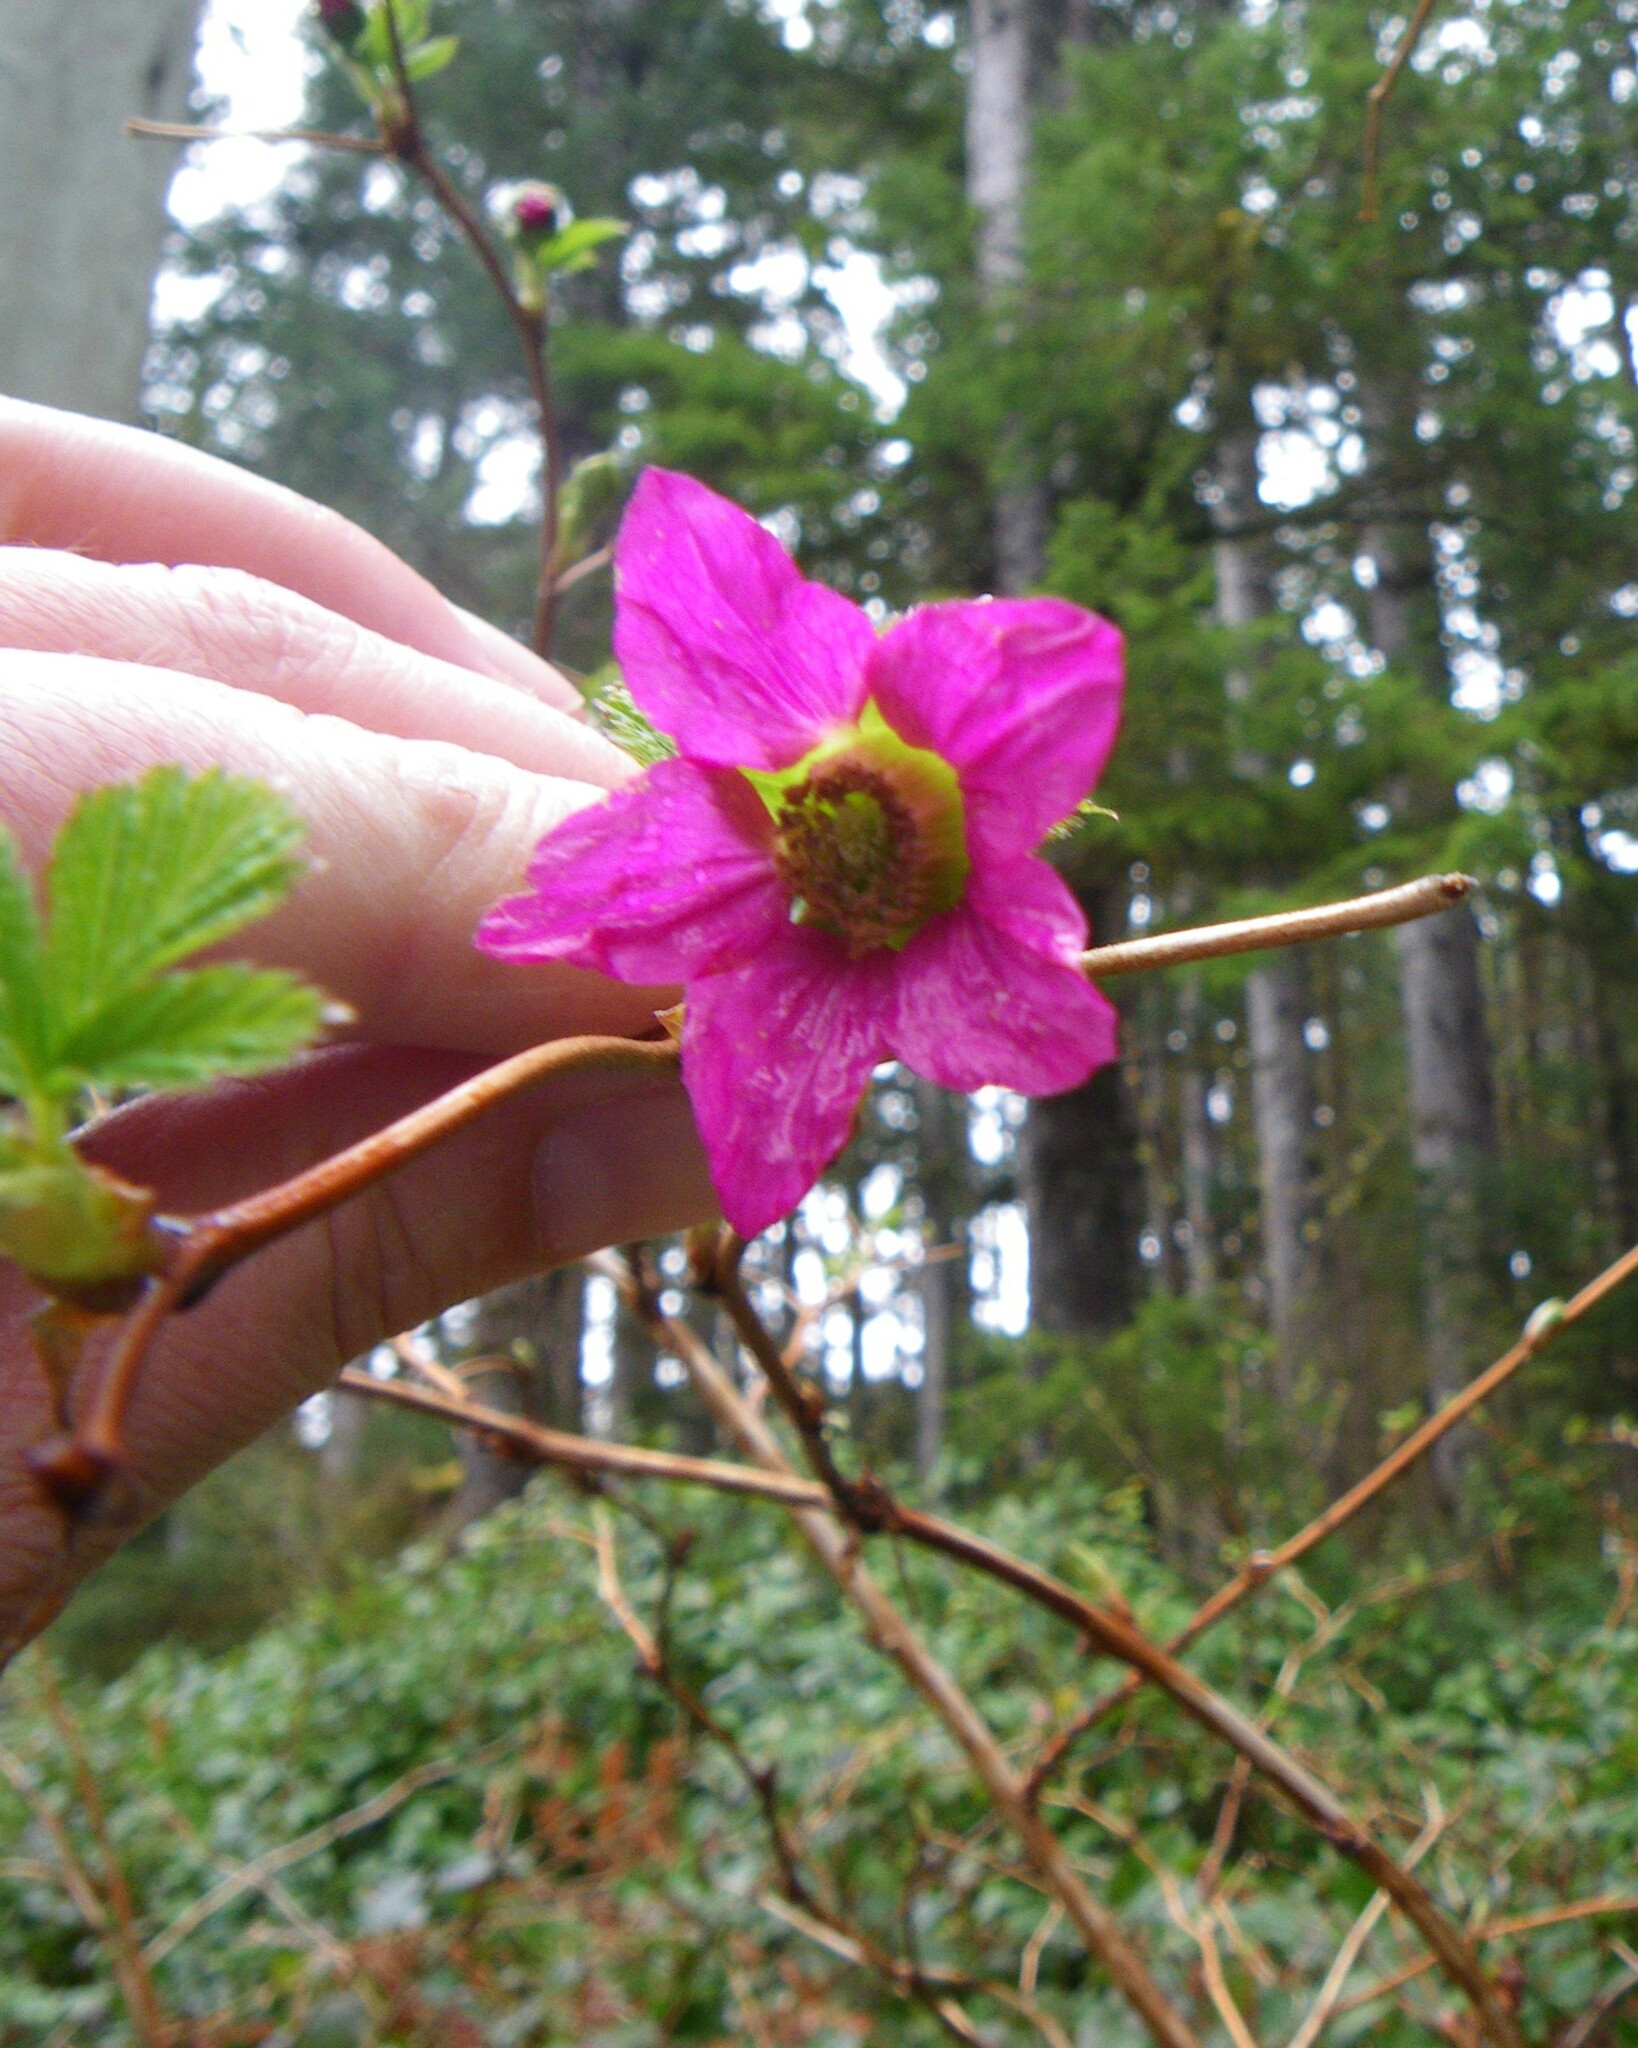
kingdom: Plantae
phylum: Tracheophyta
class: Magnoliopsida
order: Rosales
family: Rosaceae
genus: Rubus
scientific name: Rubus spectabilis
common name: Salmonberry
